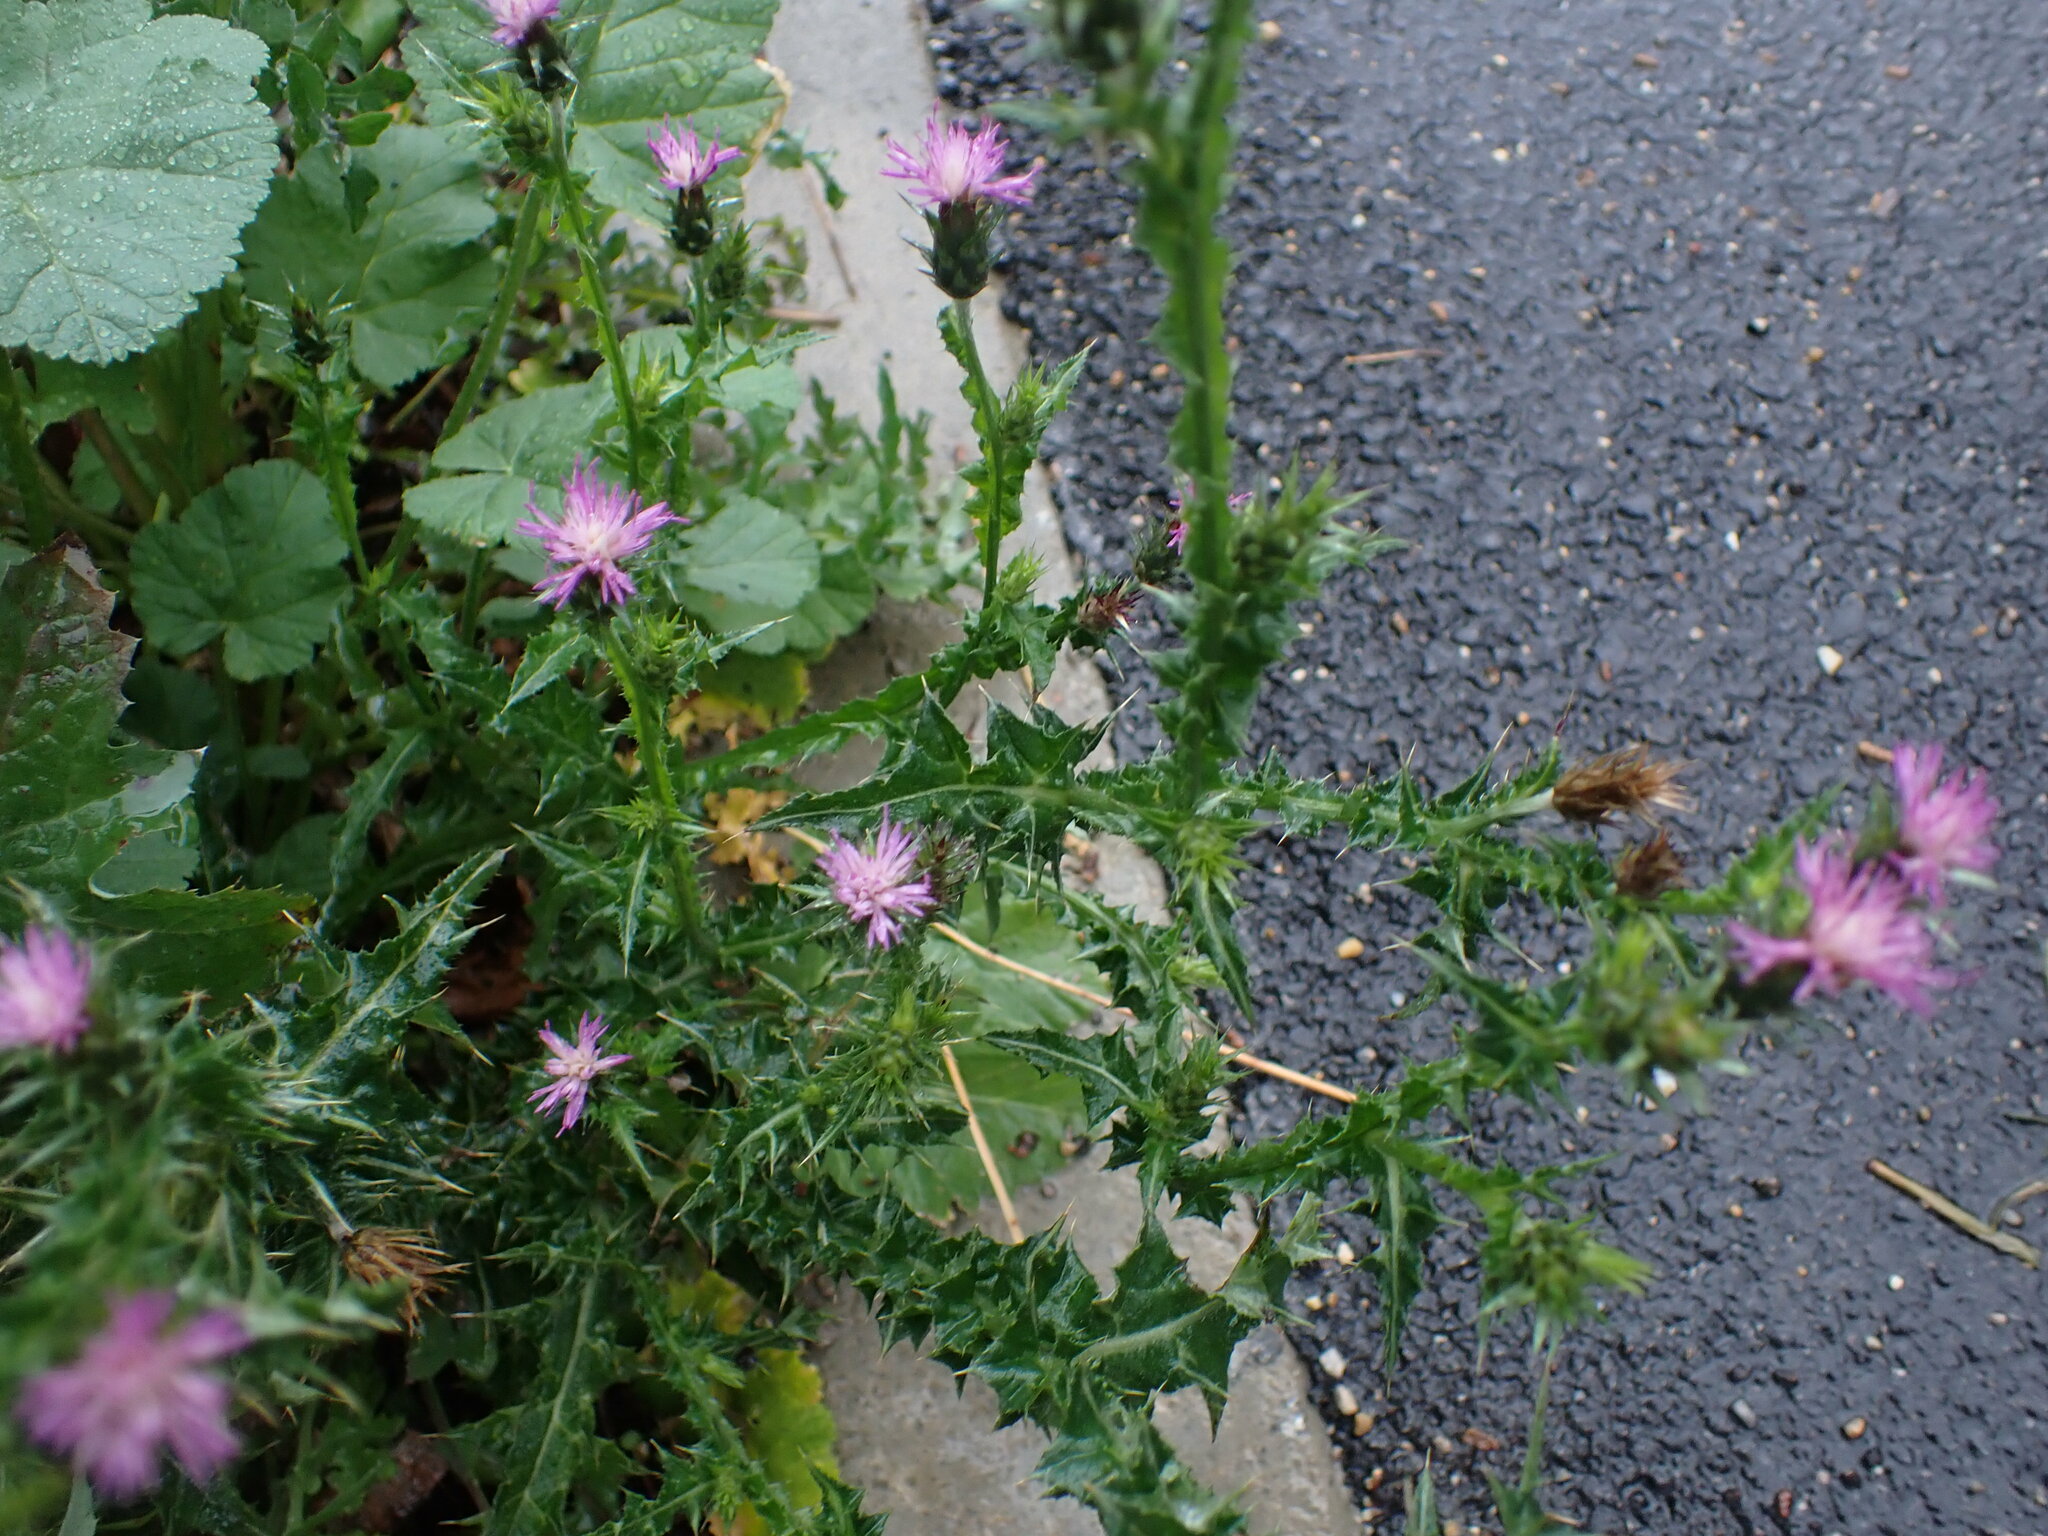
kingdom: Plantae
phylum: Tracheophyta
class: Magnoliopsida
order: Asterales
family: Asteraceae
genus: Carduus
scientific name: Carduus pycnocephalus
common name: Plymouth thistle
